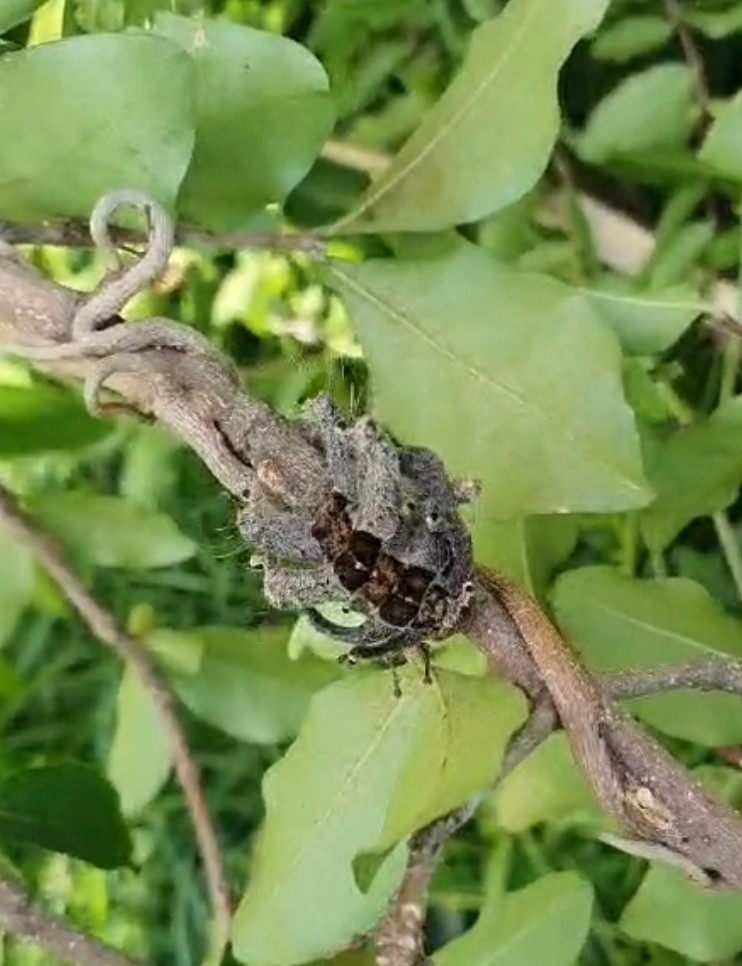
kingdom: Animalia
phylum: Arthropoda
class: Insecta
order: Lepidoptera
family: Limacodidae
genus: Phobetron
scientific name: Phobetron hipparchia
